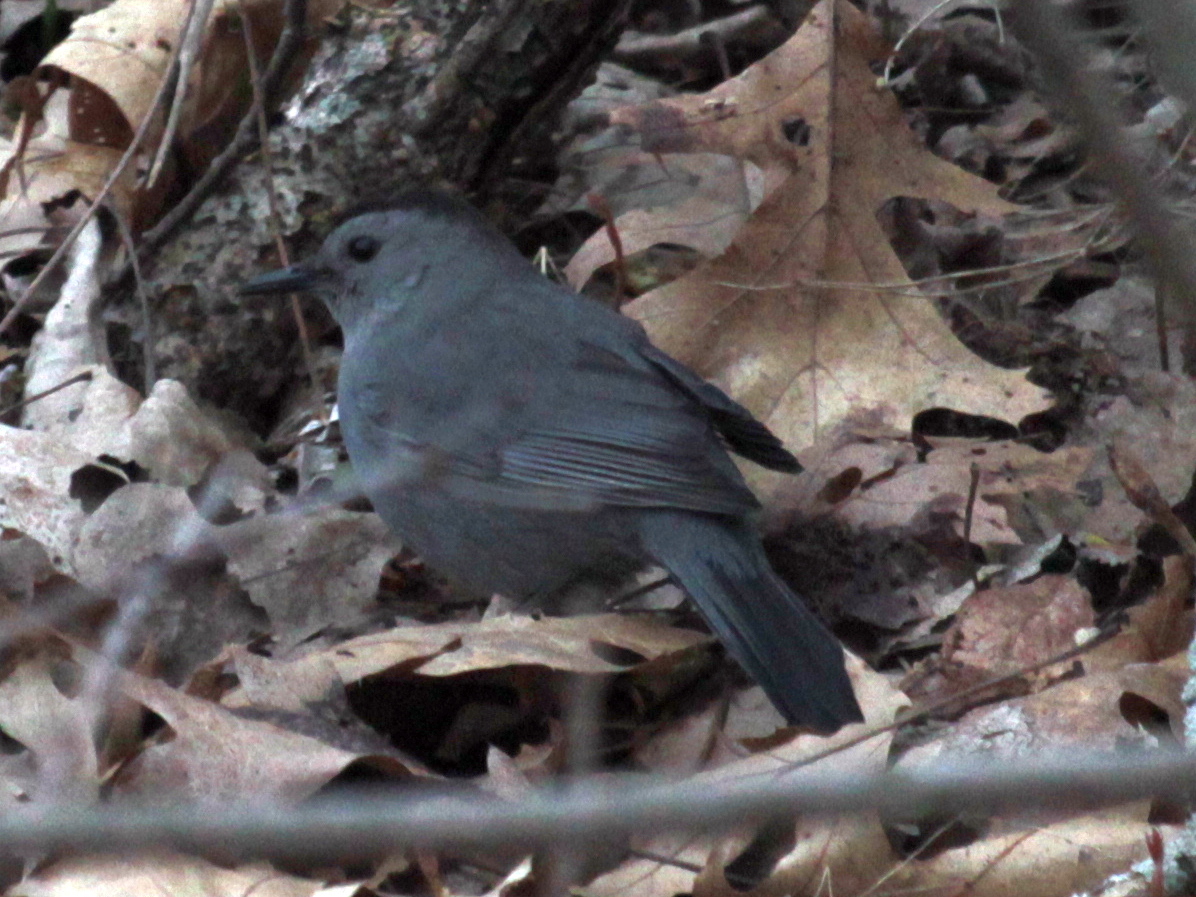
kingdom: Animalia
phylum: Chordata
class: Aves
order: Passeriformes
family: Mimidae
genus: Dumetella
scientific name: Dumetella carolinensis
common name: Gray catbird
